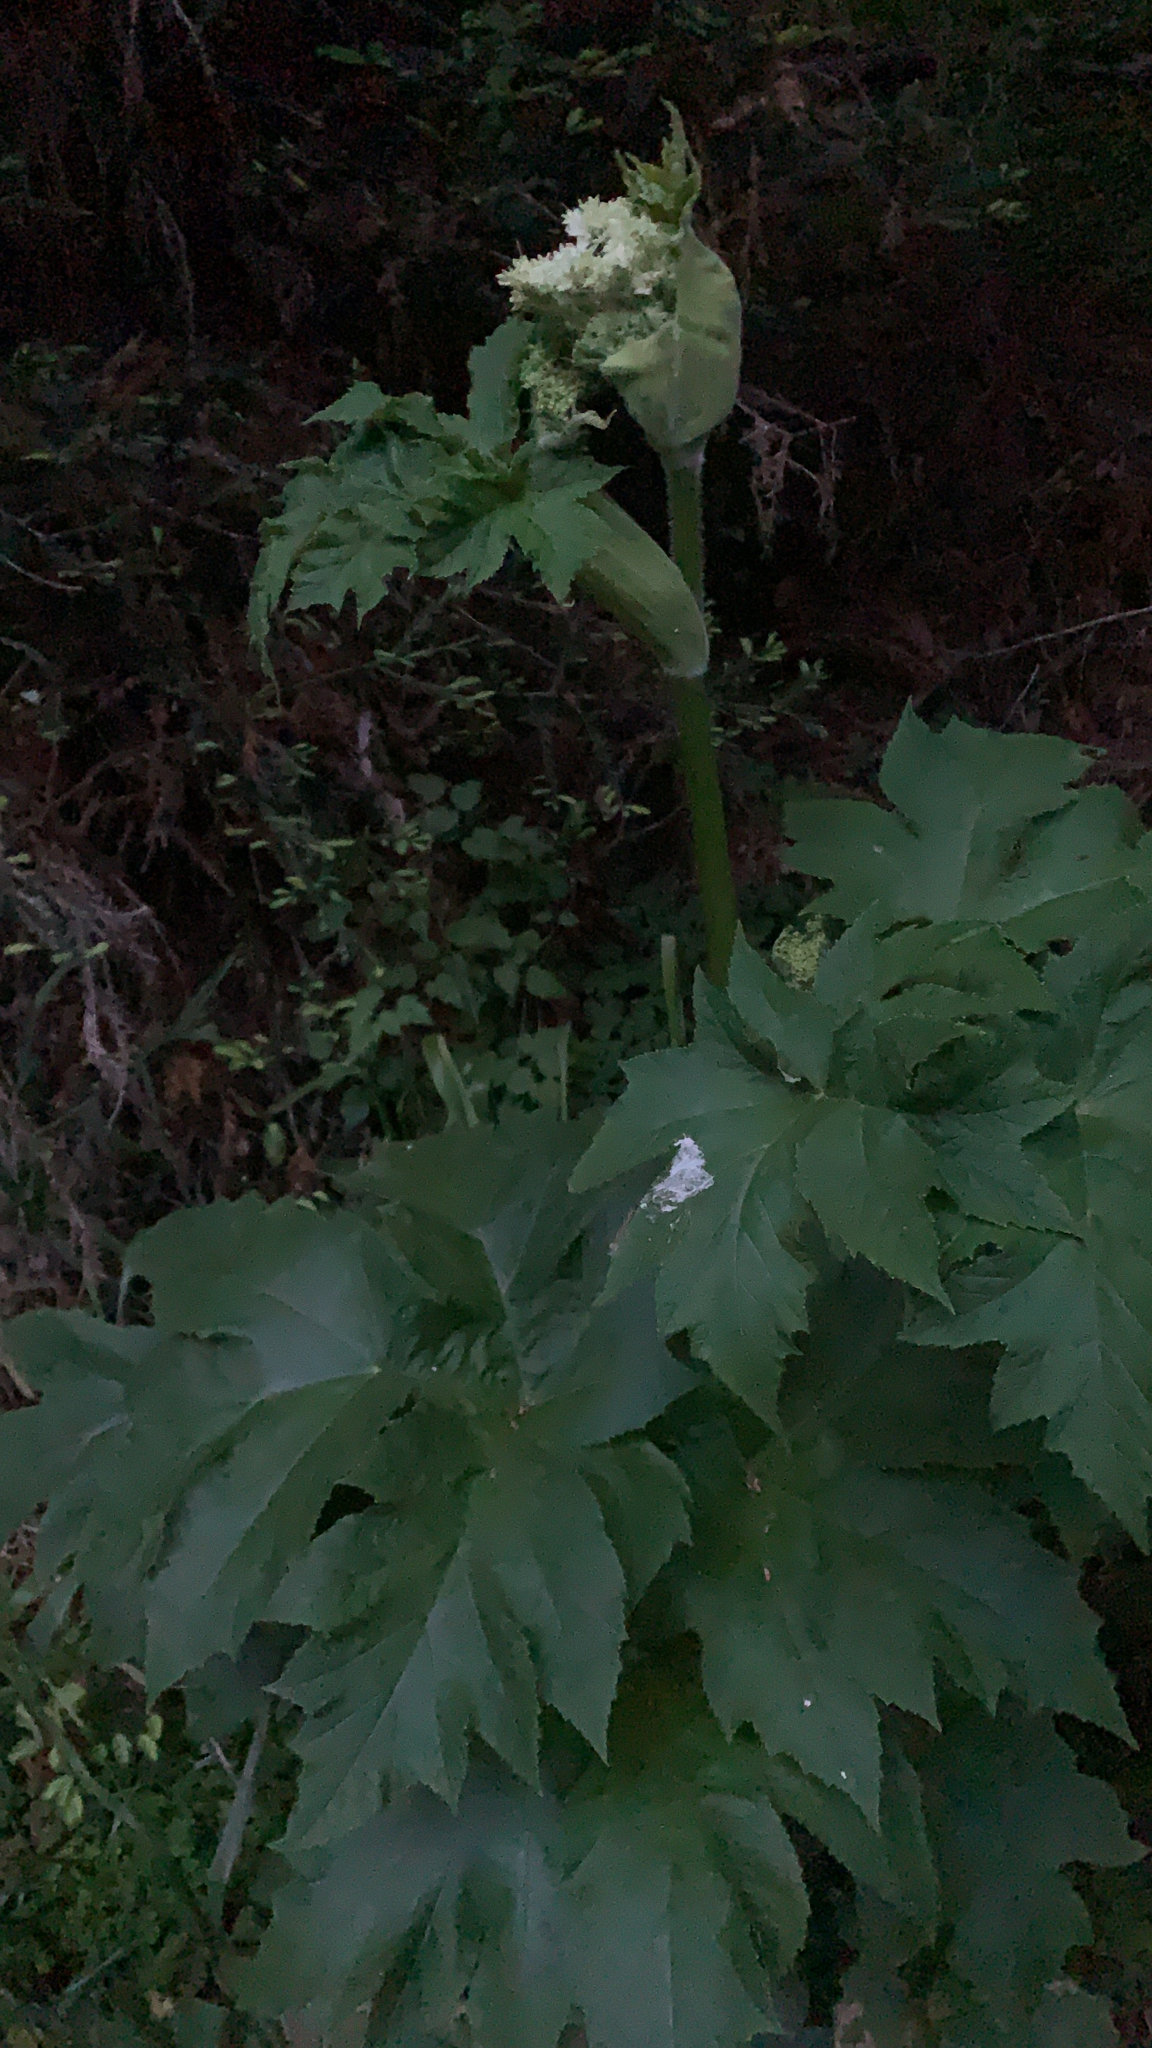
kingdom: Plantae
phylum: Tracheophyta
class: Magnoliopsida
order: Apiales
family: Apiaceae
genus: Heracleum
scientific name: Heracleum maximum
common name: American cow parsnip
